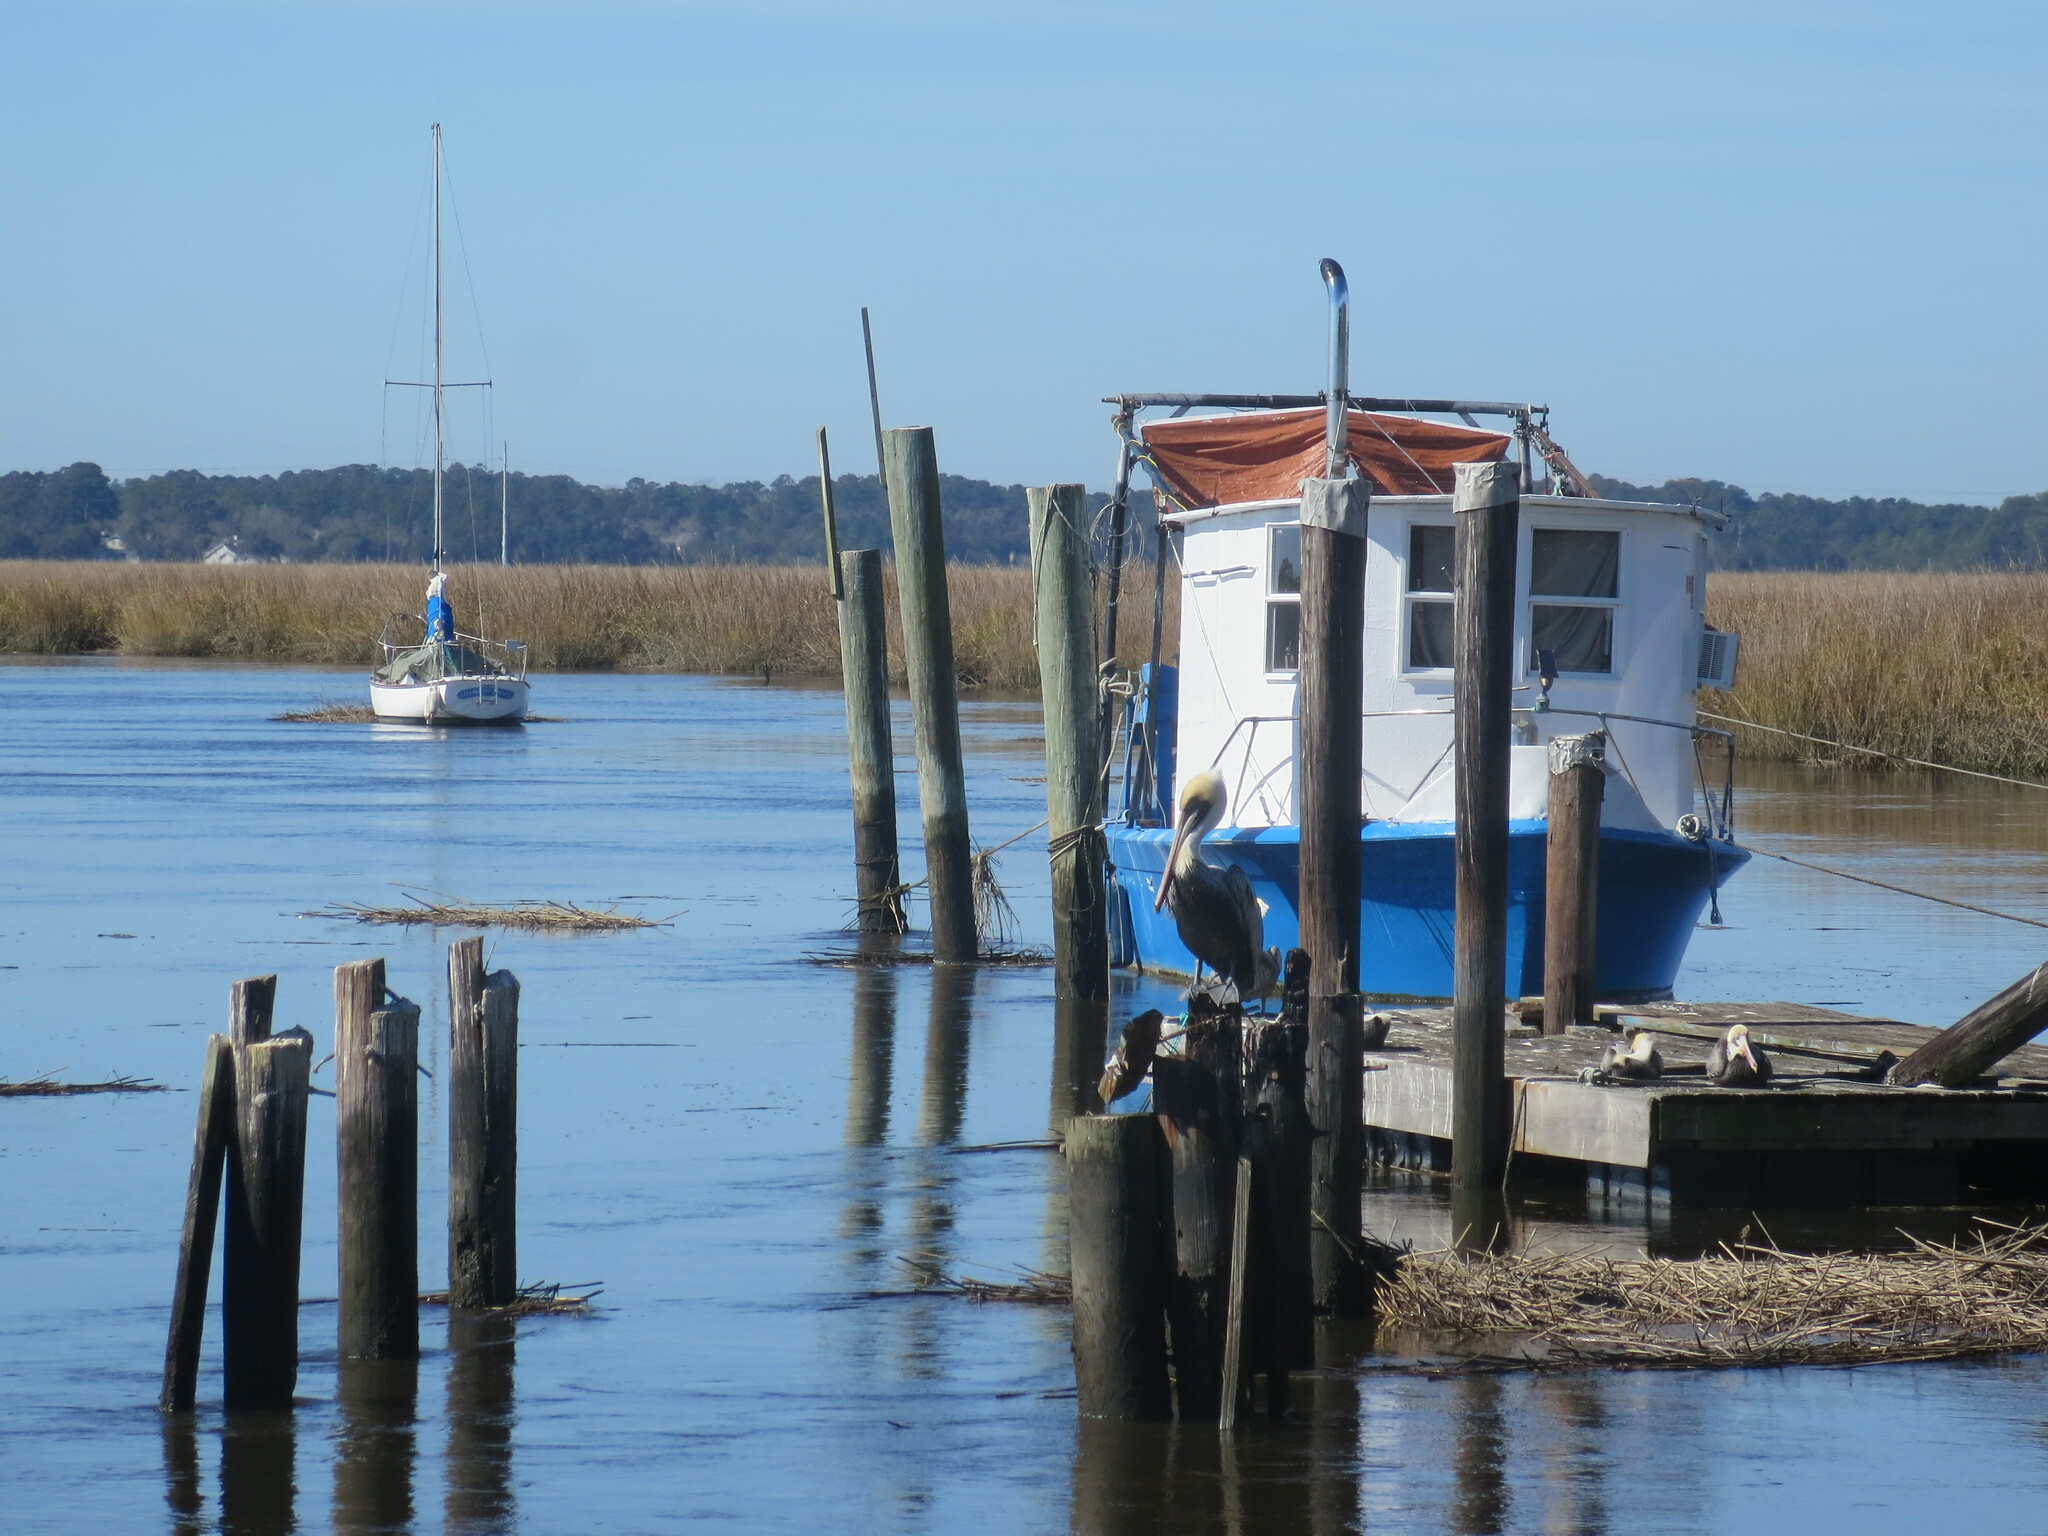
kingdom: Animalia
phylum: Chordata
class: Aves
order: Pelecaniformes
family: Pelecanidae
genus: Pelecanus
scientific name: Pelecanus occidentalis
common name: Brown pelican
